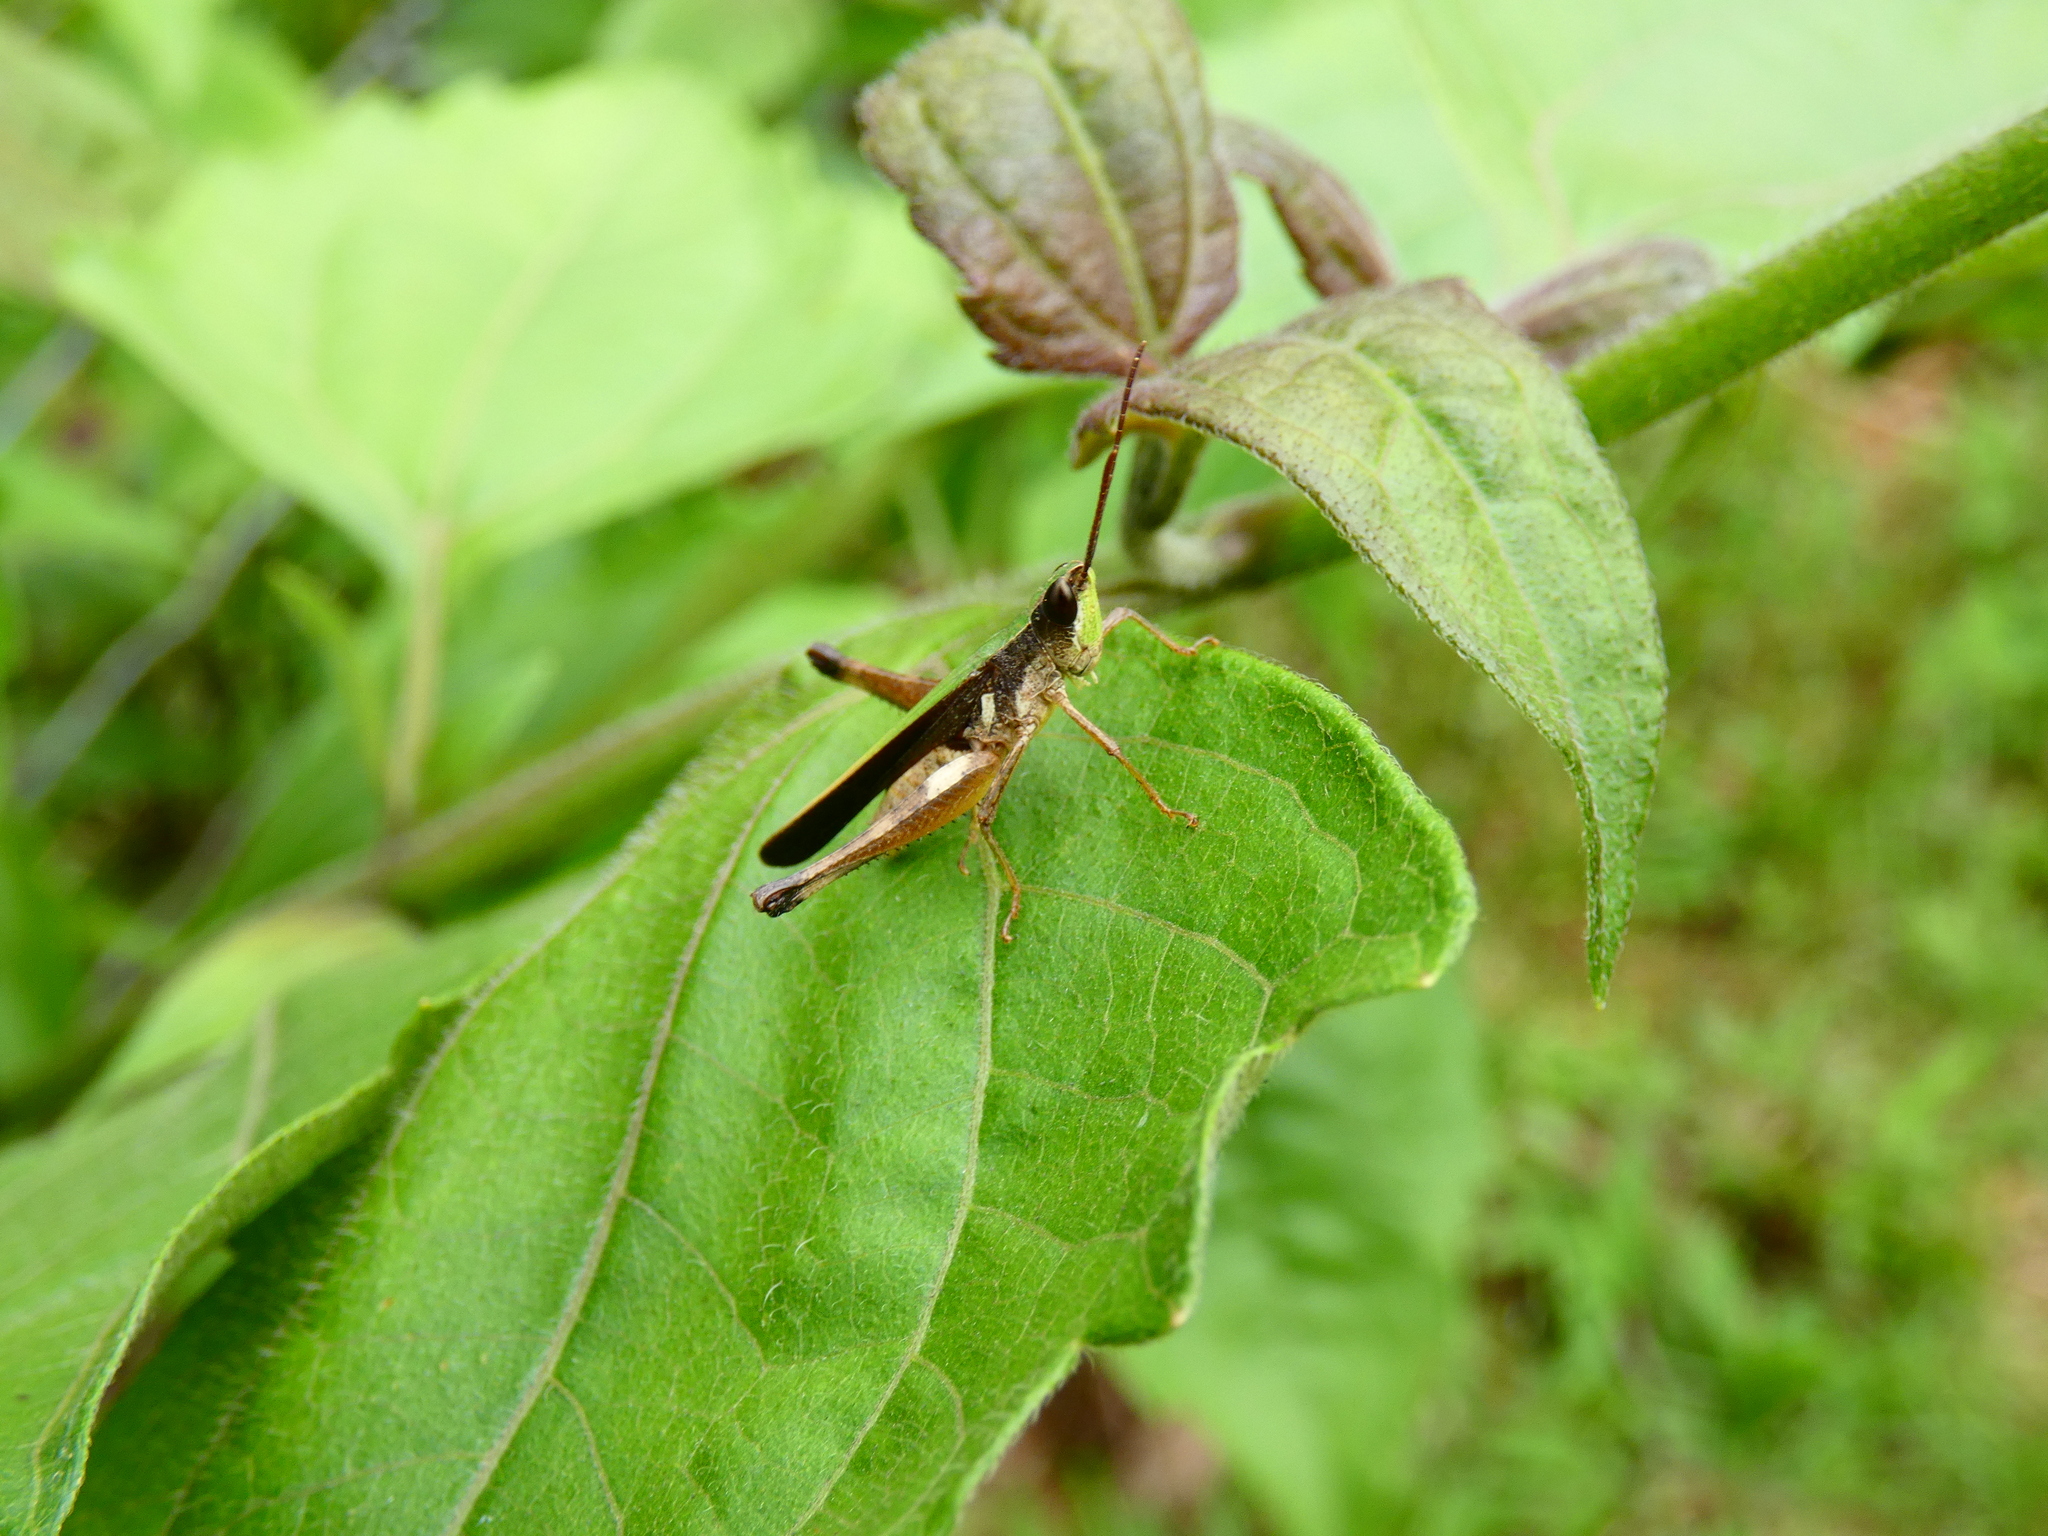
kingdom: Animalia
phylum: Arthropoda
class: Insecta
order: Orthoptera
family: Acrididae
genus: Roduniella
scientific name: Roduniella insipida
